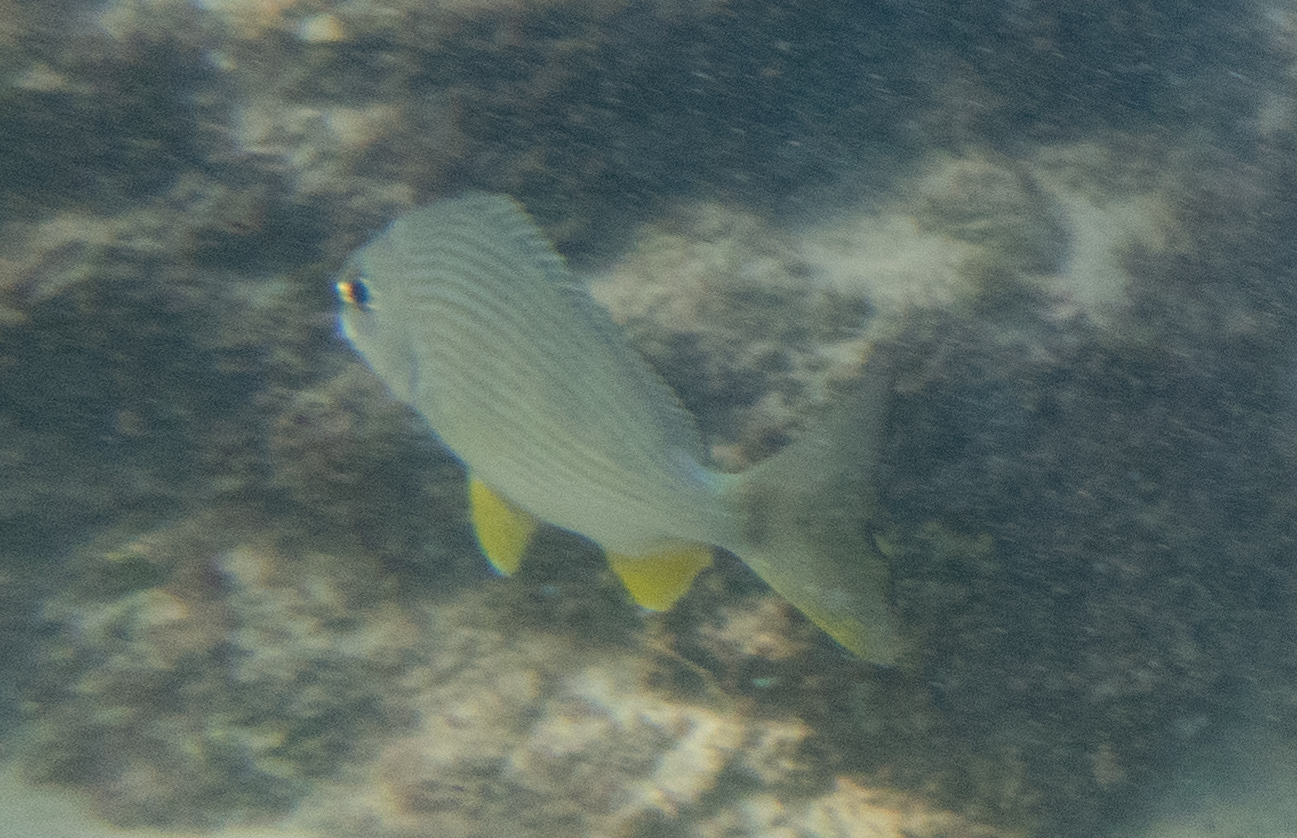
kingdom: Animalia
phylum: Chordata
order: Perciformes
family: Sparidae
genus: Rhabdosargus
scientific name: Rhabdosargus sarba
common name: Goldlined seabream
